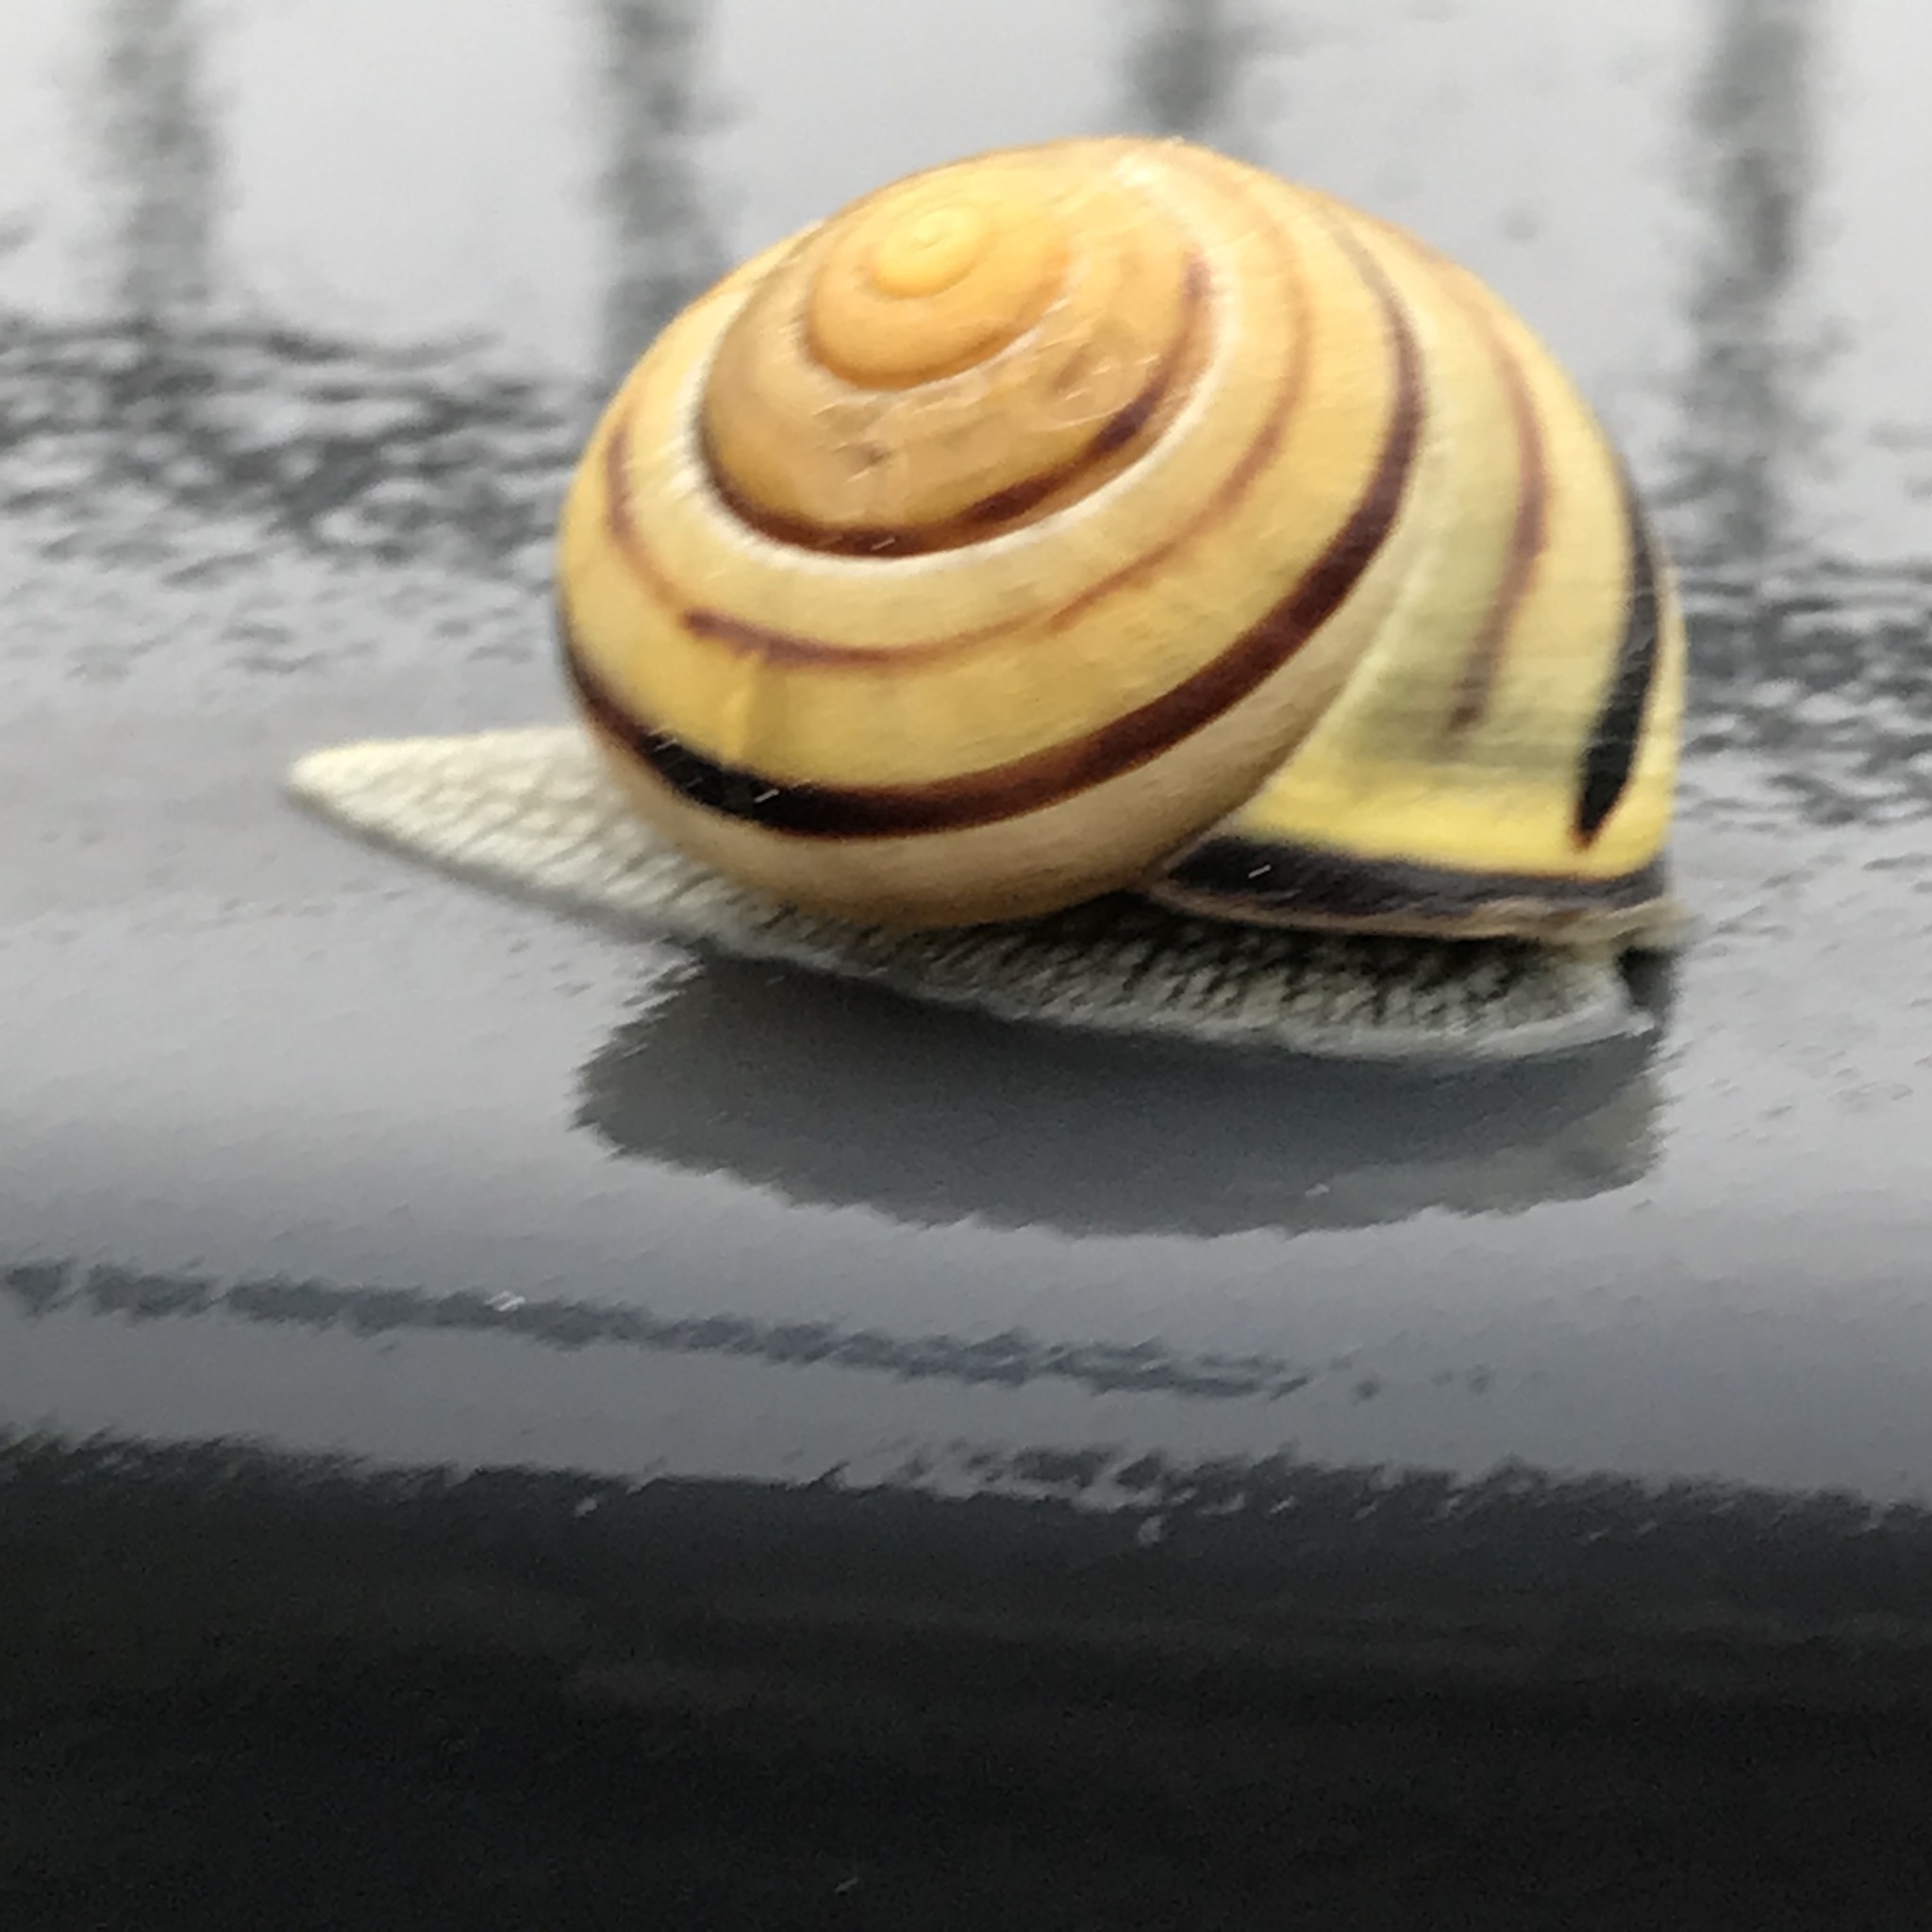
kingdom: Animalia
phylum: Mollusca
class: Gastropoda
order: Stylommatophora
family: Helicidae
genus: Cepaea
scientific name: Cepaea nemoralis
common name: Grovesnail
